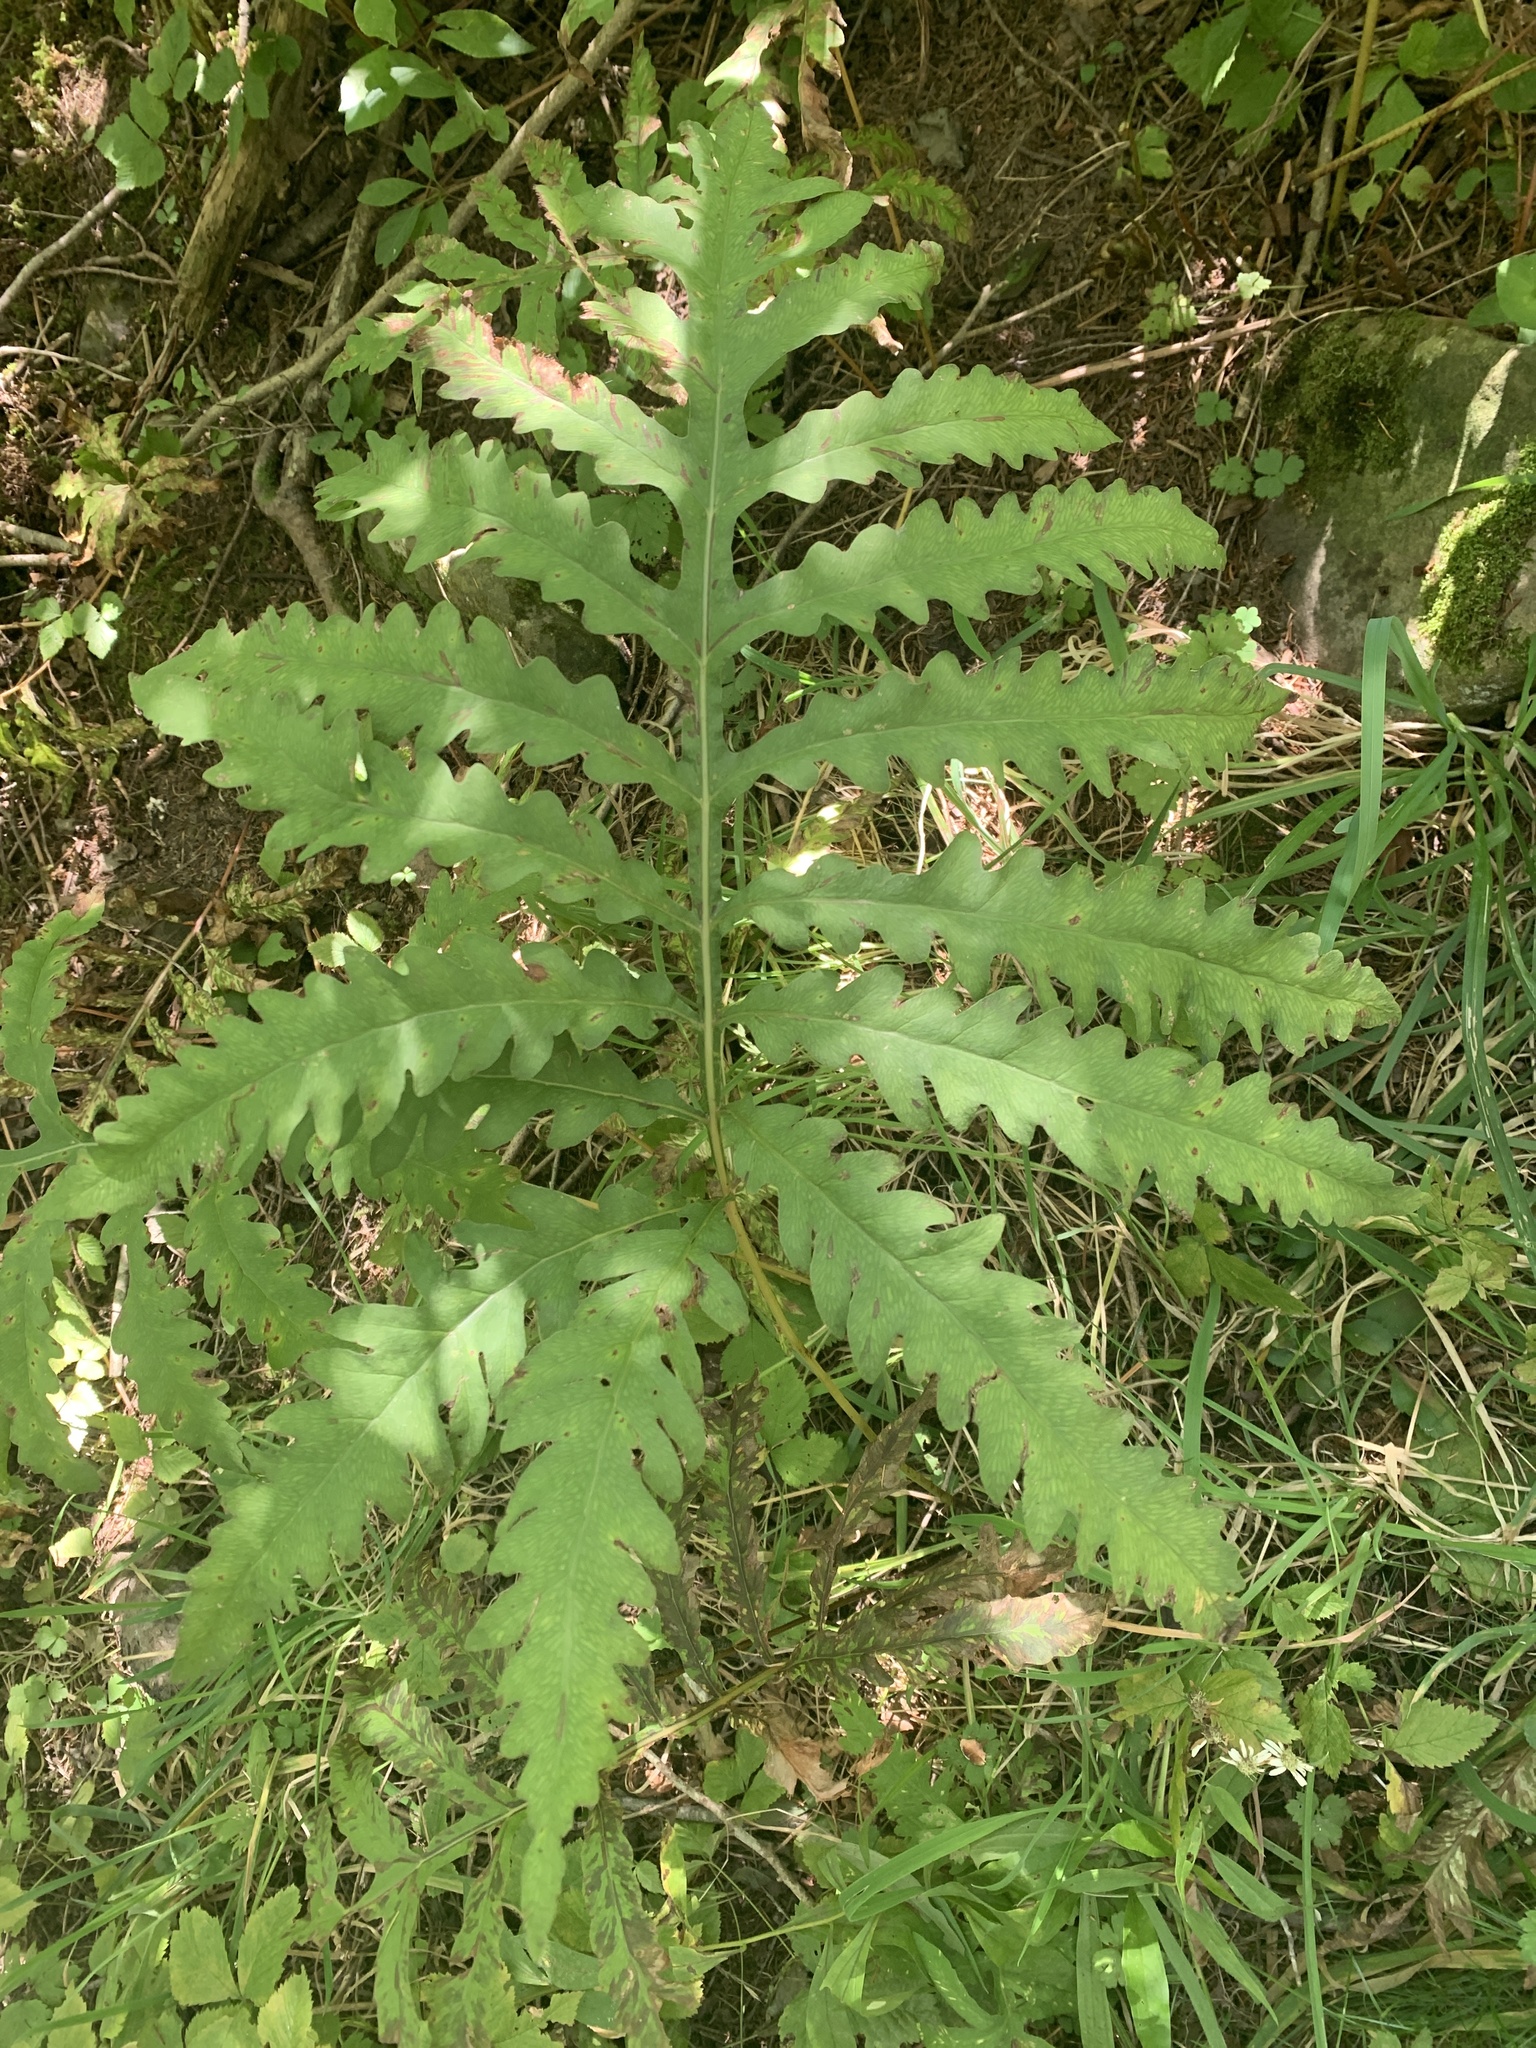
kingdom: Plantae
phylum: Tracheophyta
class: Polypodiopsida
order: Polypodiales
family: Onocleaceae
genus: Onoclea
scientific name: Onoclea sensibilis
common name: Sensitive fern
